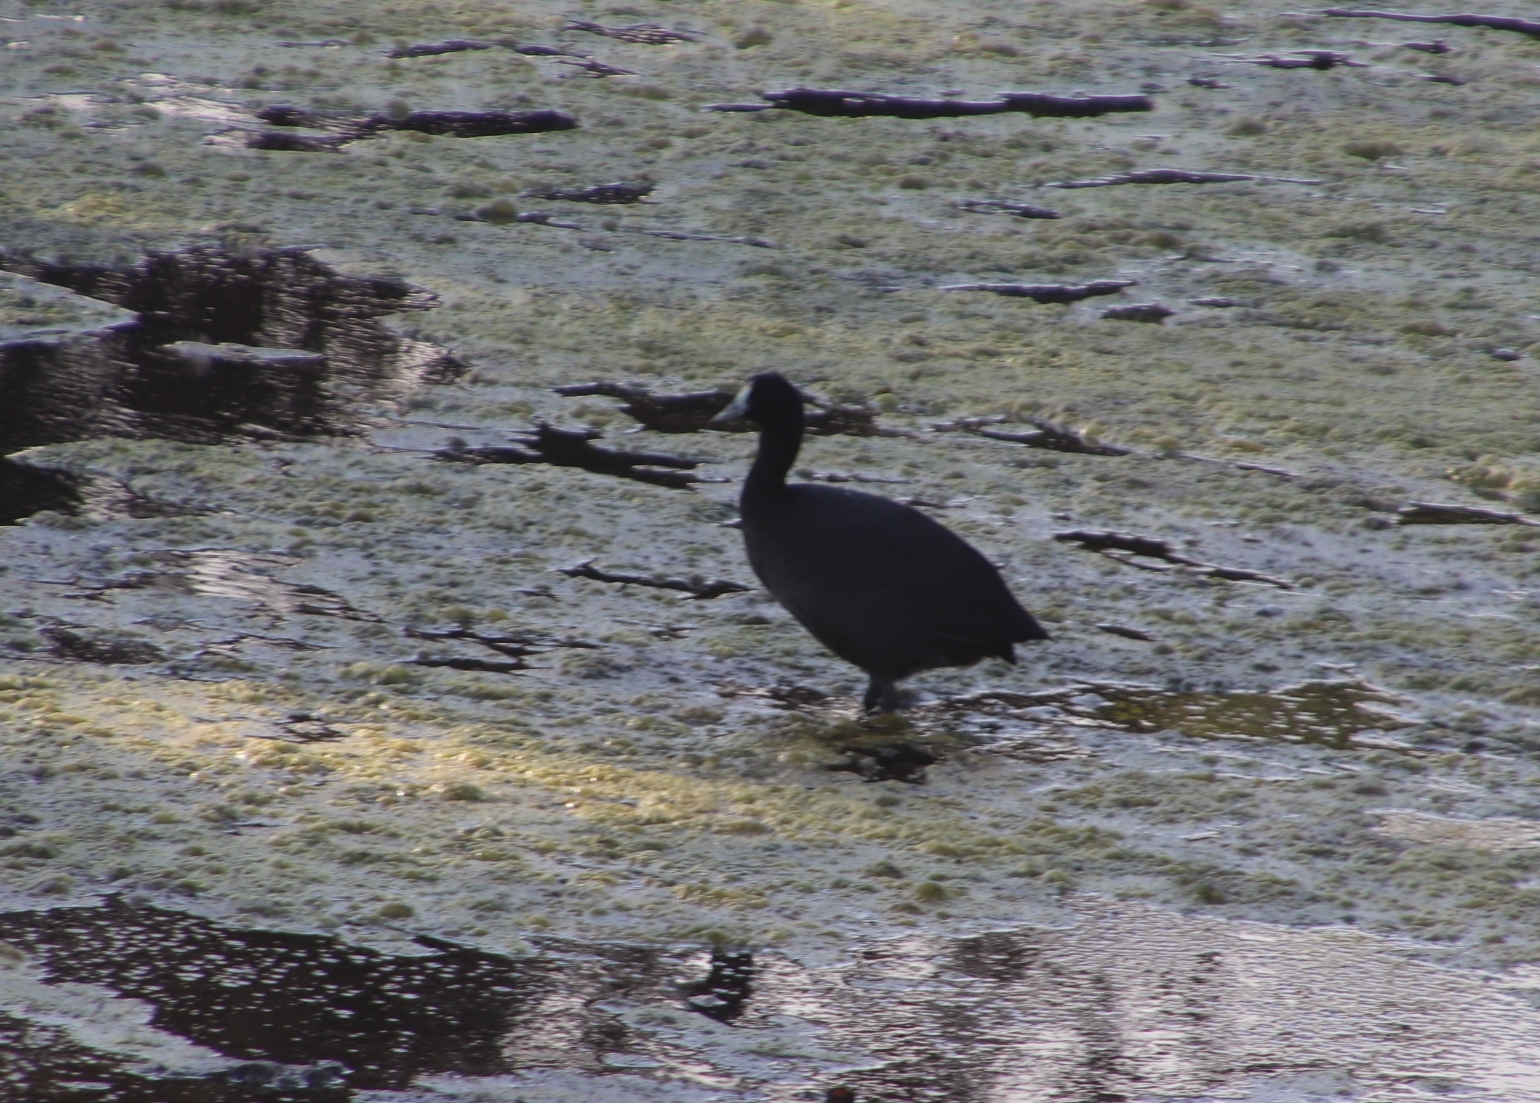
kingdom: Animalia
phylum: Chordata
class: Aves
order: Gruiformes
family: Rallidae
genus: Fulica
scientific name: Fulica cristata
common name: Red-knobbed coot
